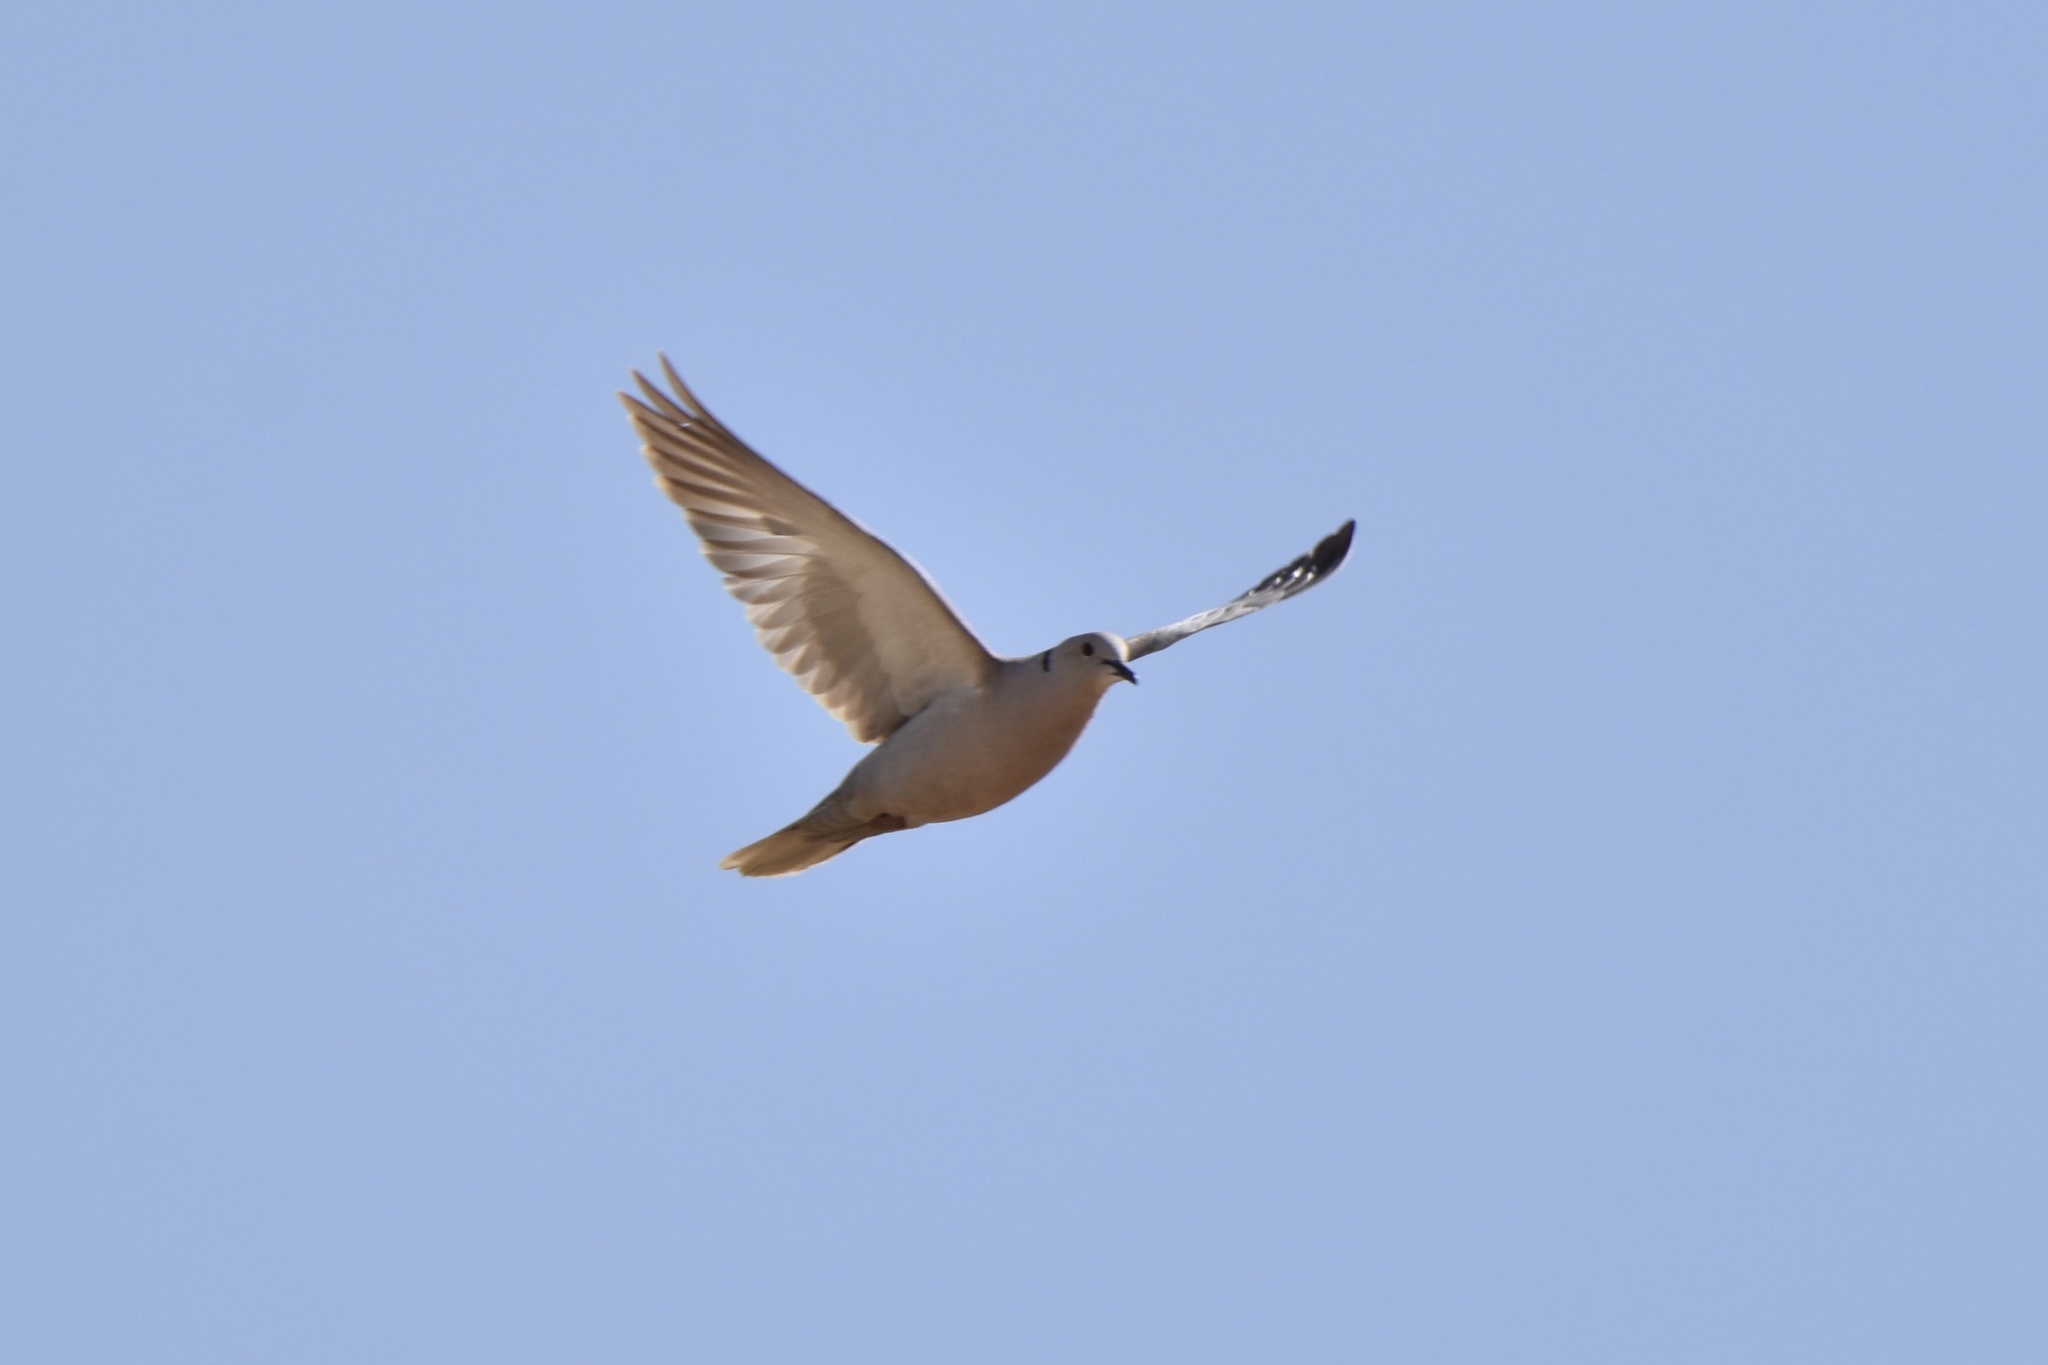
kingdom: Animalia
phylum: Chordata
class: Aves
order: Columbiformes
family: Columbidae
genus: Streptopelia
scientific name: Streptopelia decaocto
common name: Eurasian collared dove
